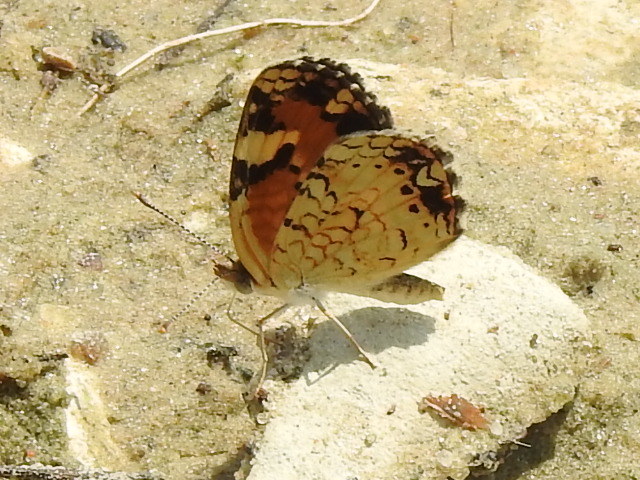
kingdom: Animalia
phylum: Arthropoda
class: Insecta
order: Lepidoptera
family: Nymphalidae
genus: Phyciodes
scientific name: Phyciodes phaon
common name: Phaon crescent
